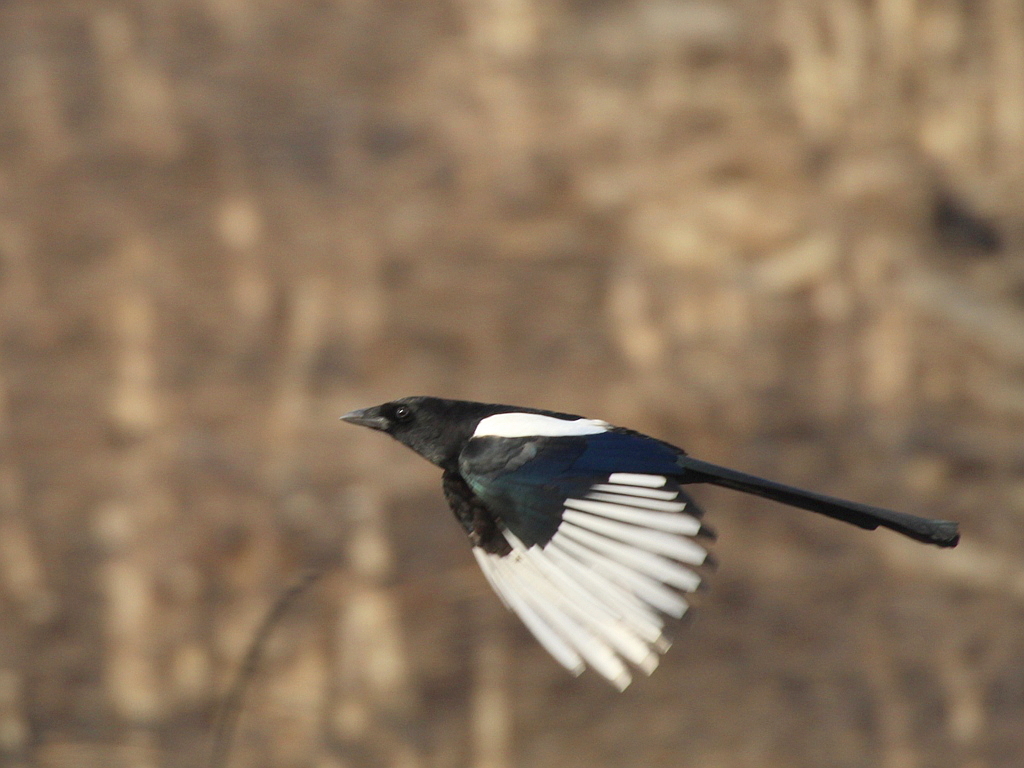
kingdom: Animalia
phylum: Chordata
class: Aves
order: Passeriformes
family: Corvidae
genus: Pica
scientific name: Pica serica
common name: Oriental magpie
